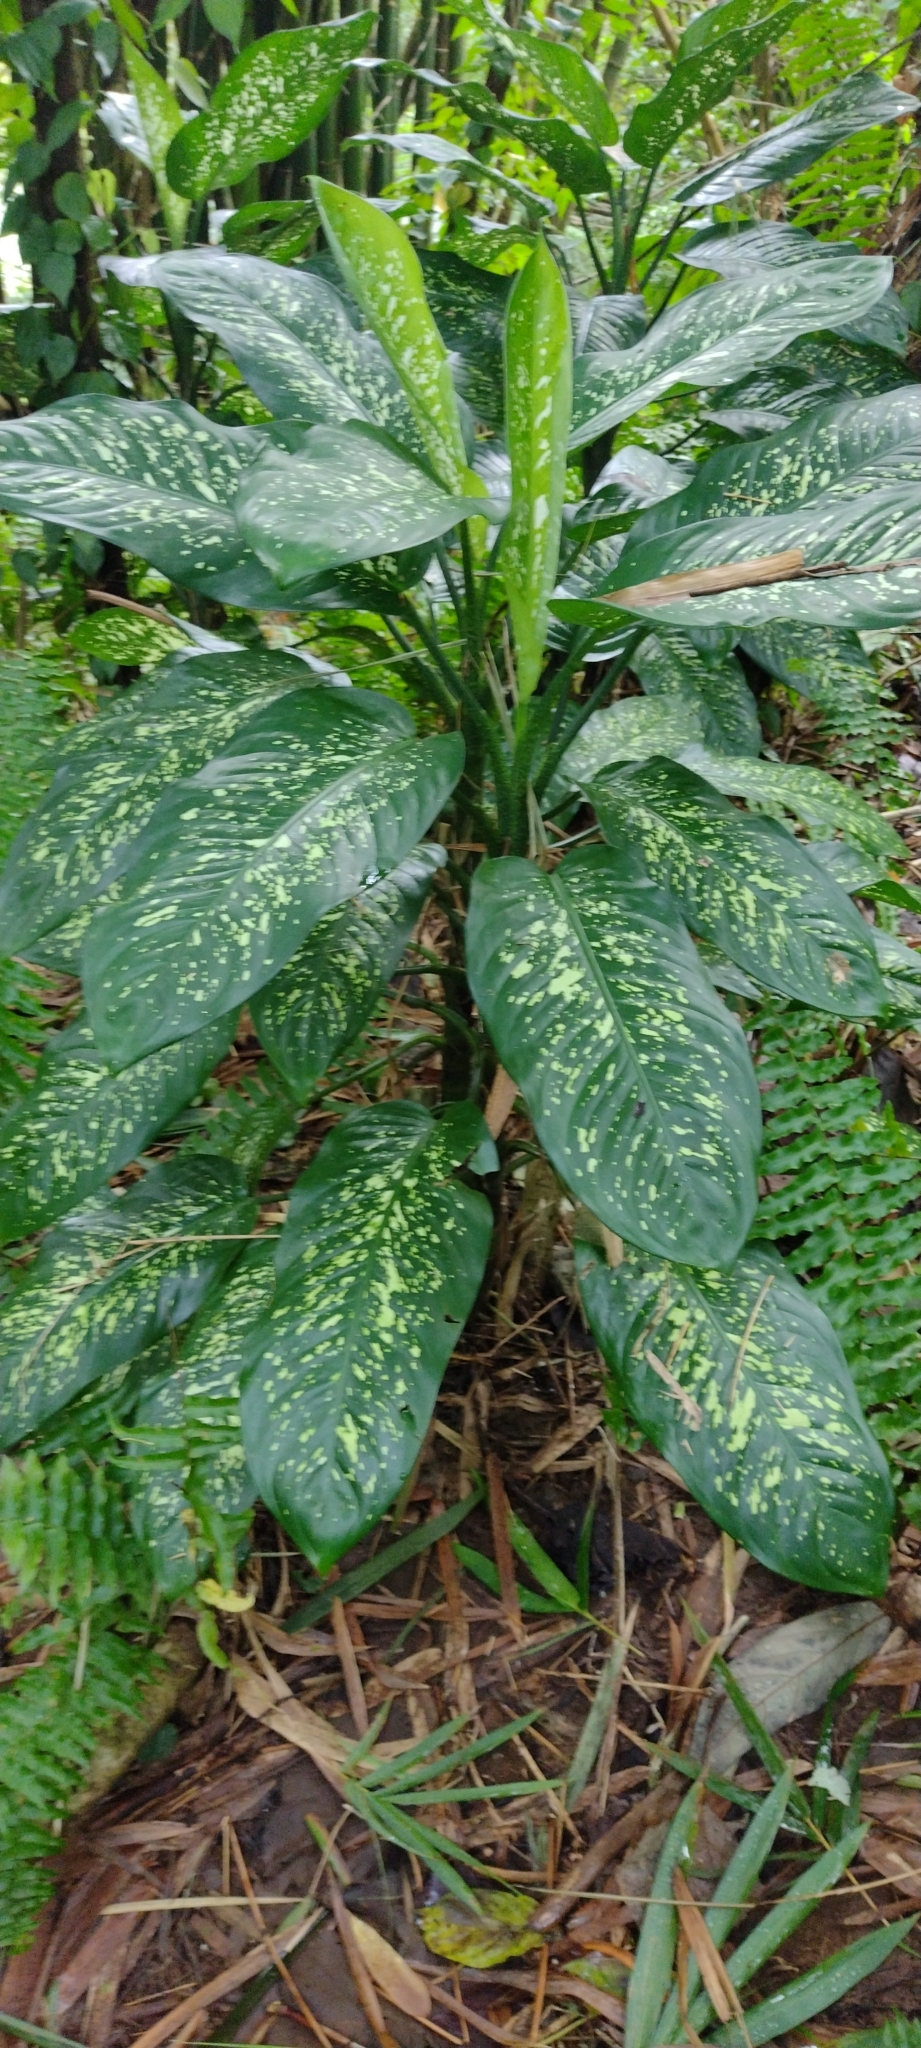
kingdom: Plantae
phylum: Tracheophyta
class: Liliopsida
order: Alismatales
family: Araceae
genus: Dieffenbachia
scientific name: Dieffenbachia seguine
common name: Dumbcane
